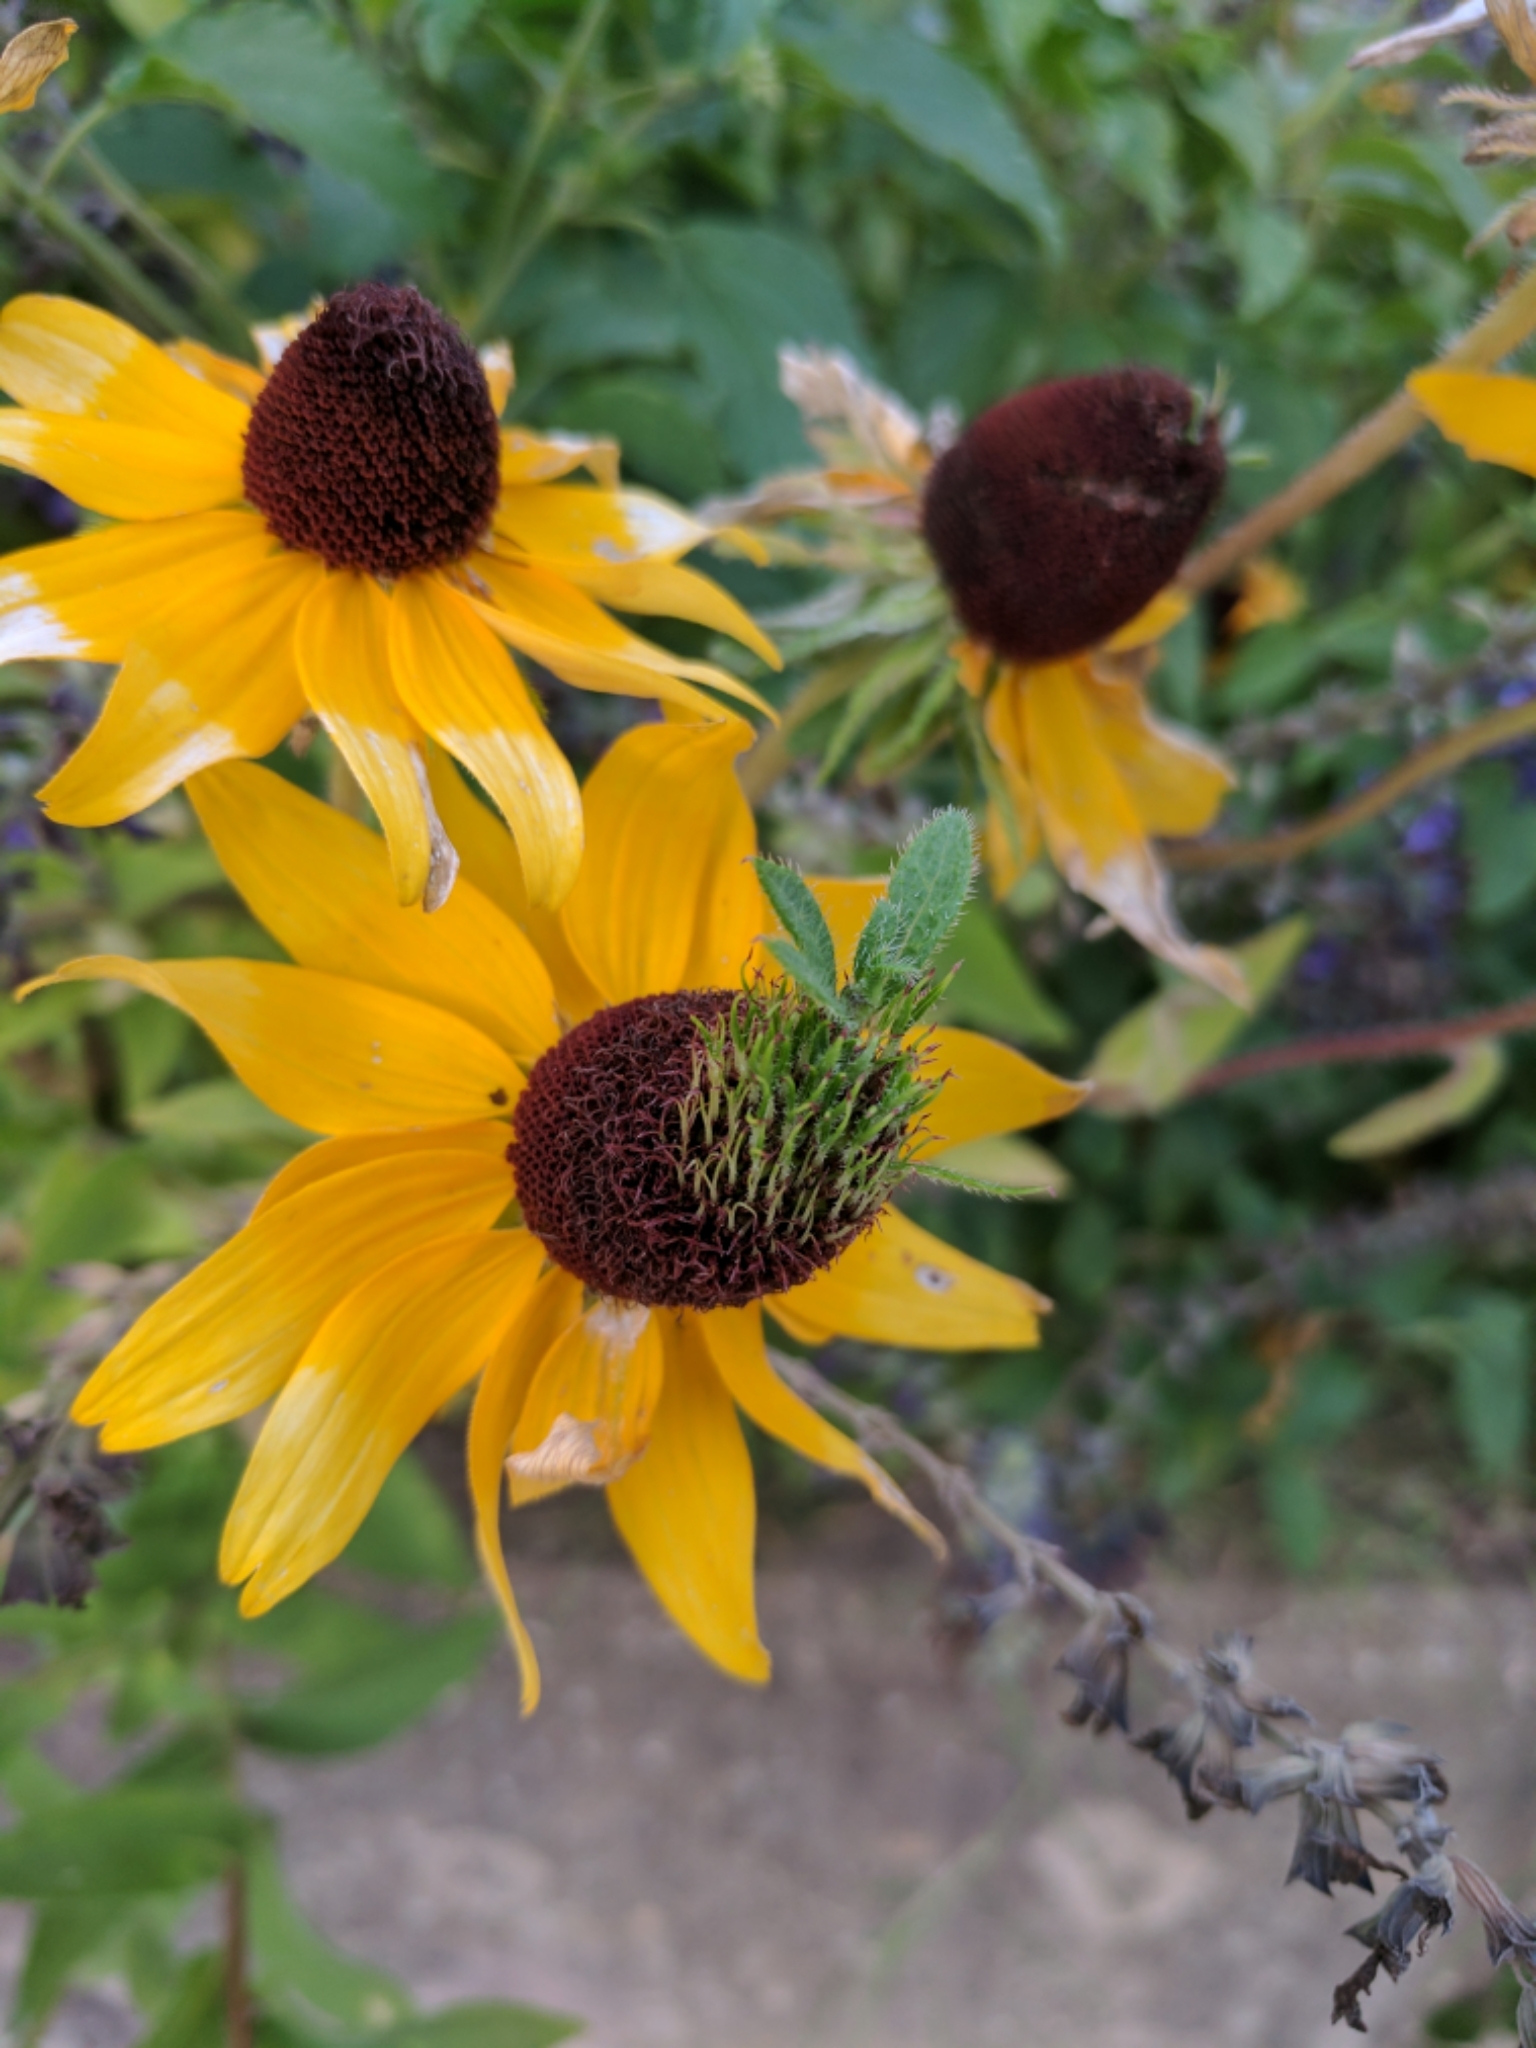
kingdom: Plantae
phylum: Tracheophyta
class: Magnoliopsida
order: Asterales
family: Asteraceae
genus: Rudbeckia
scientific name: Rudbeckia hirta
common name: Black-eyed-susan
